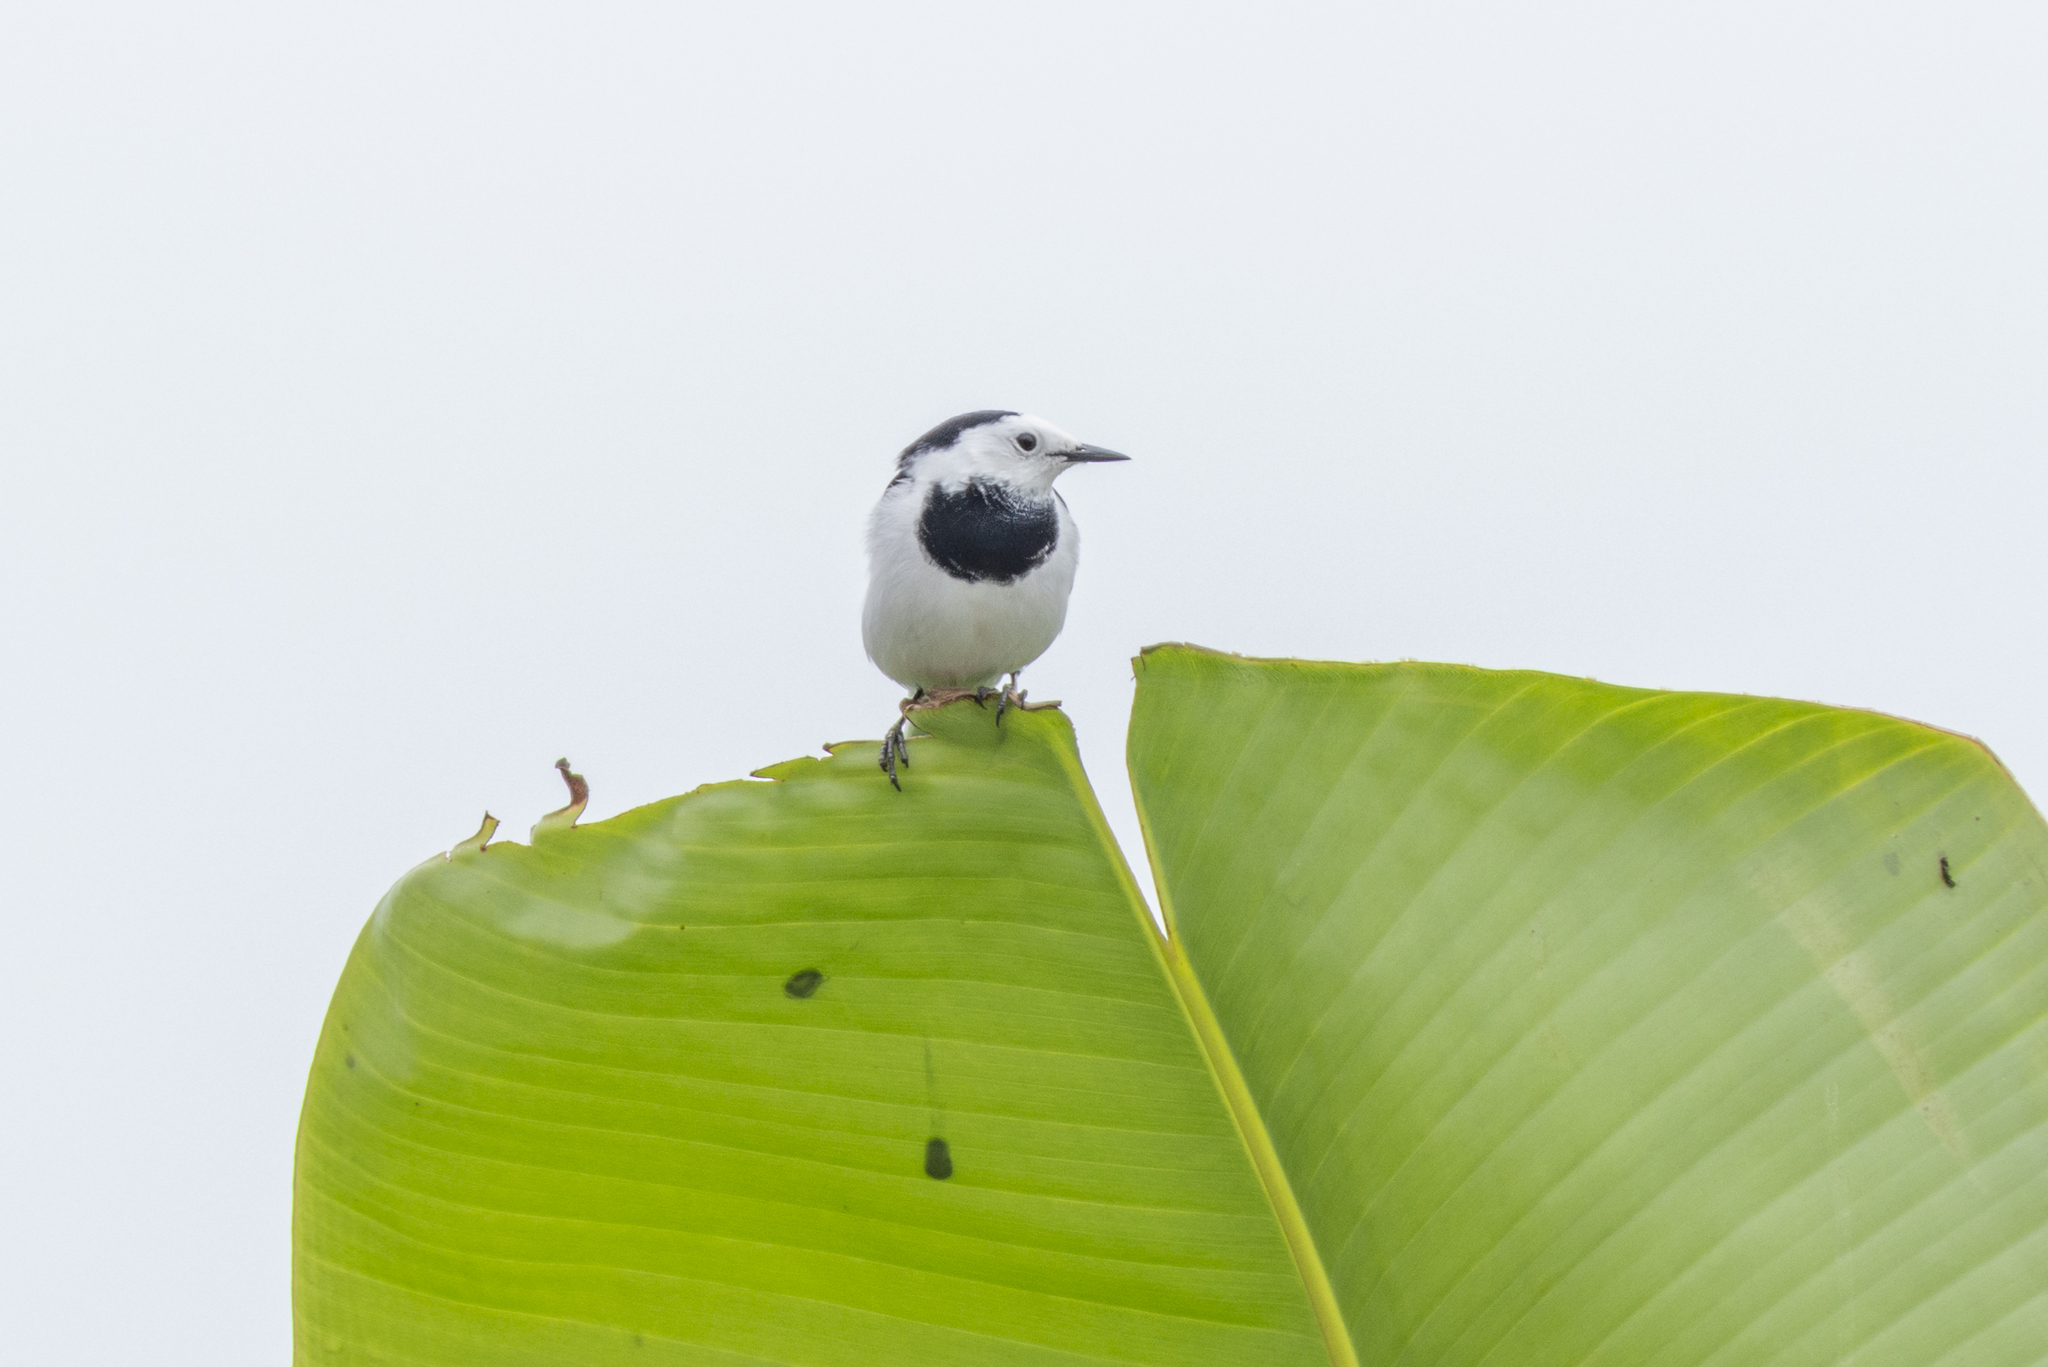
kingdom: Animalia
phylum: Chordata
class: Aves
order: Passeriformes
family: Motacillidae
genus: Motacilla
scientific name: Motacilla alba
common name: White wagtail
